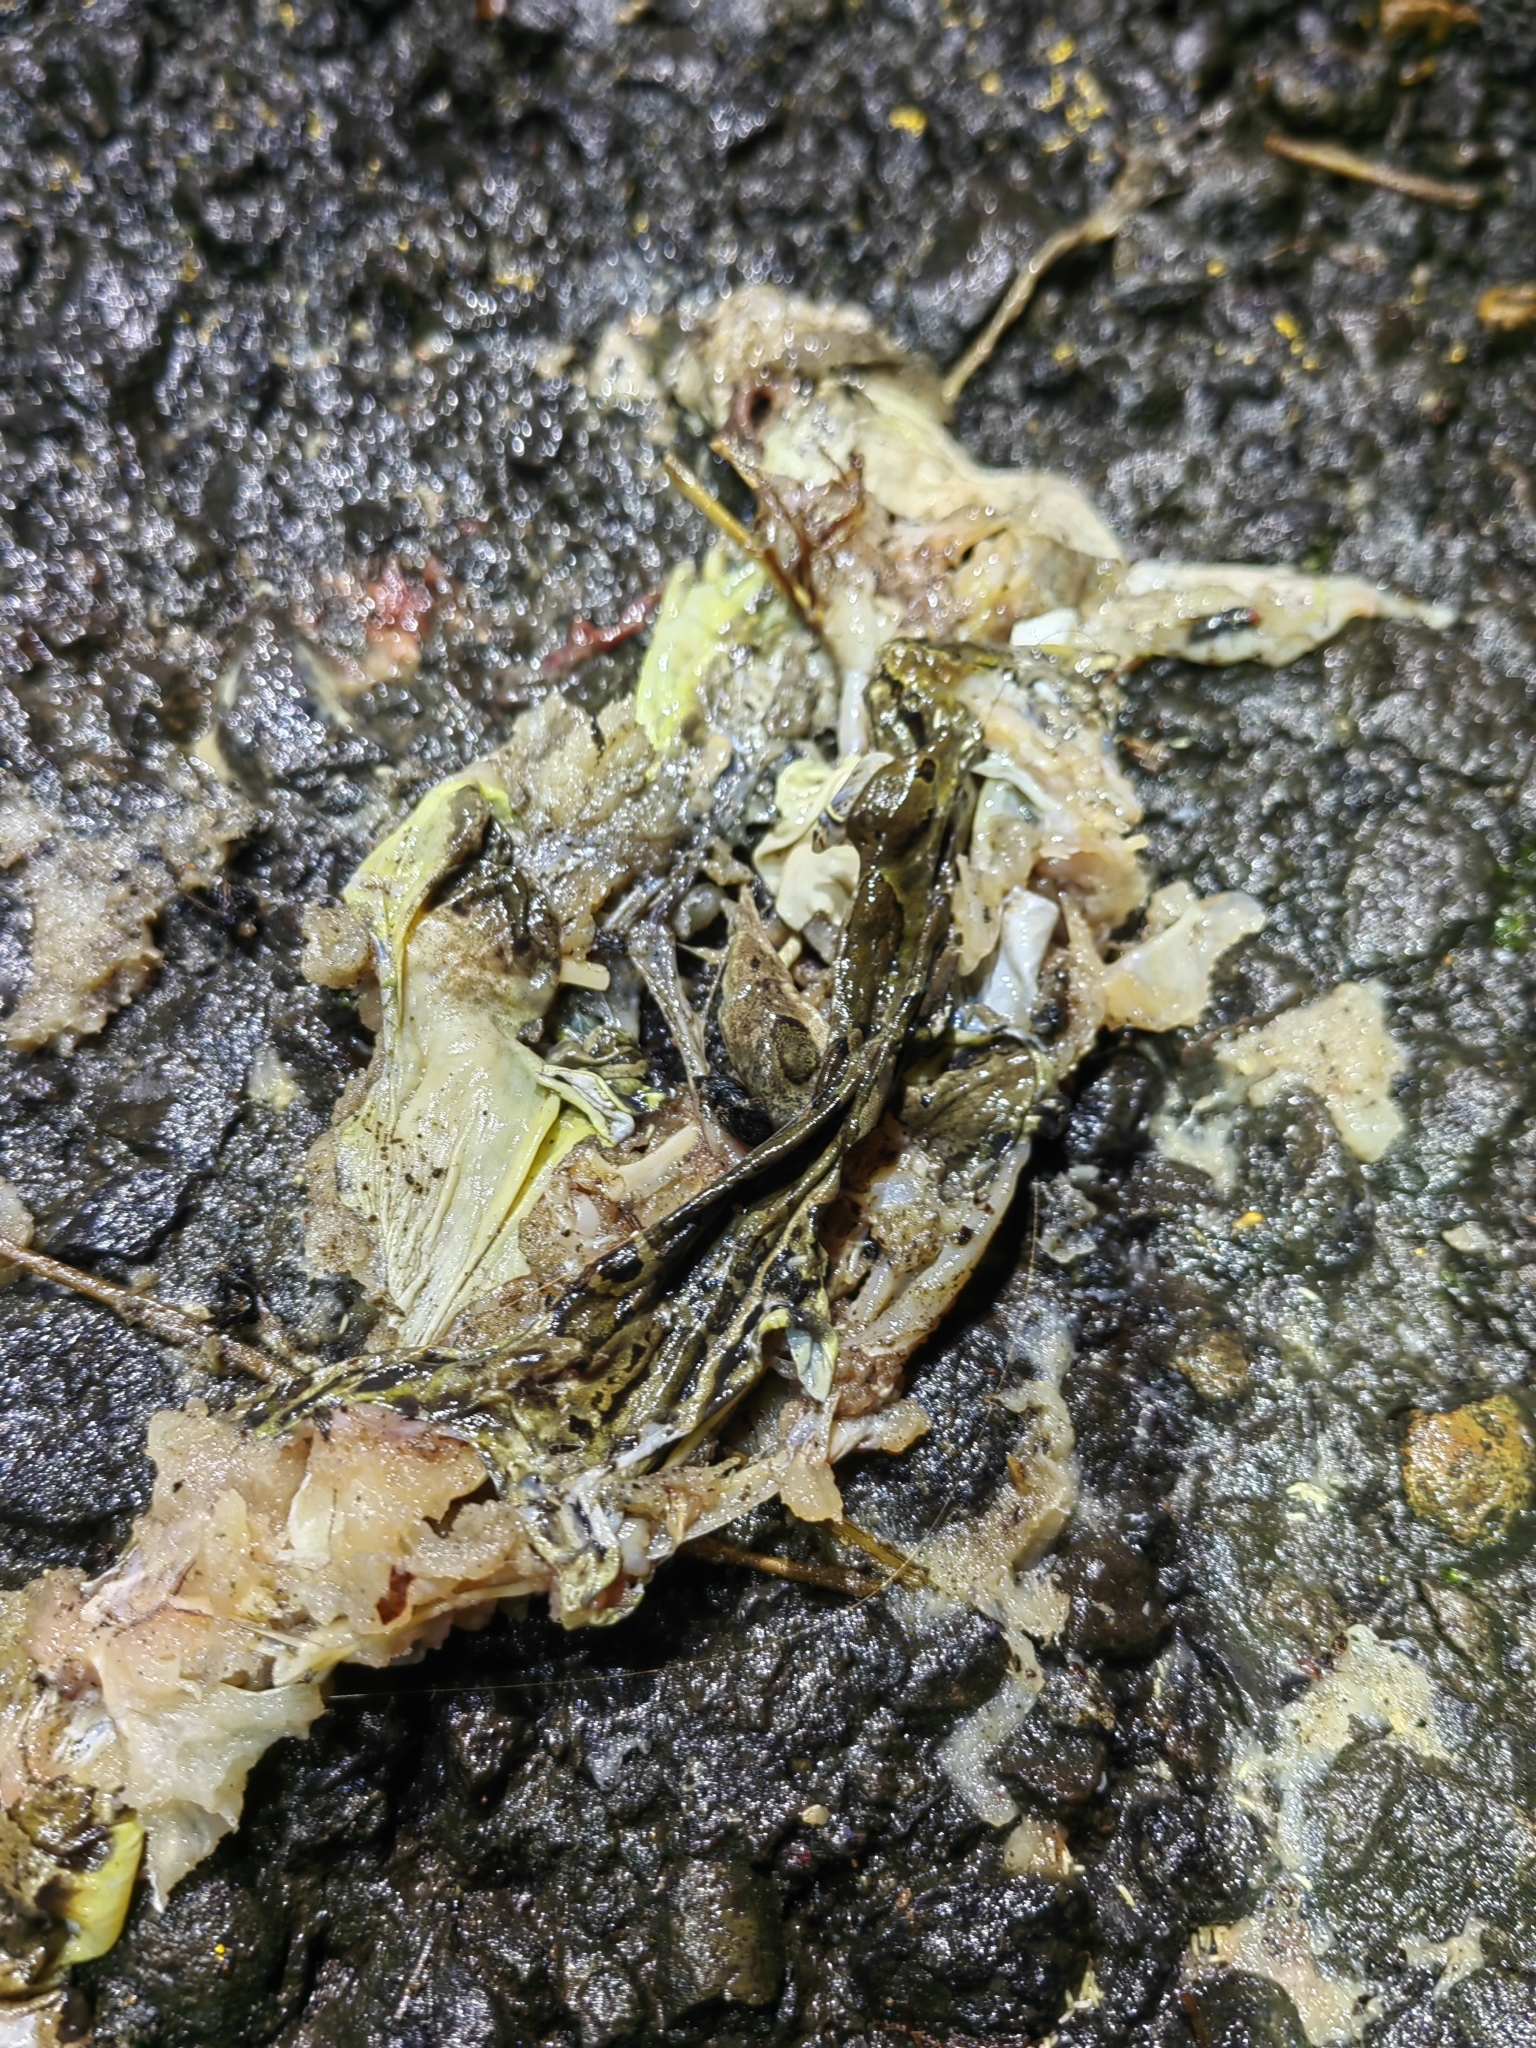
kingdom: Animalia
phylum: Chordata
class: Amphibia
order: Anura
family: Ranidae
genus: Lithobates
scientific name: Lithobates forreri
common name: Forrer's grass frog
